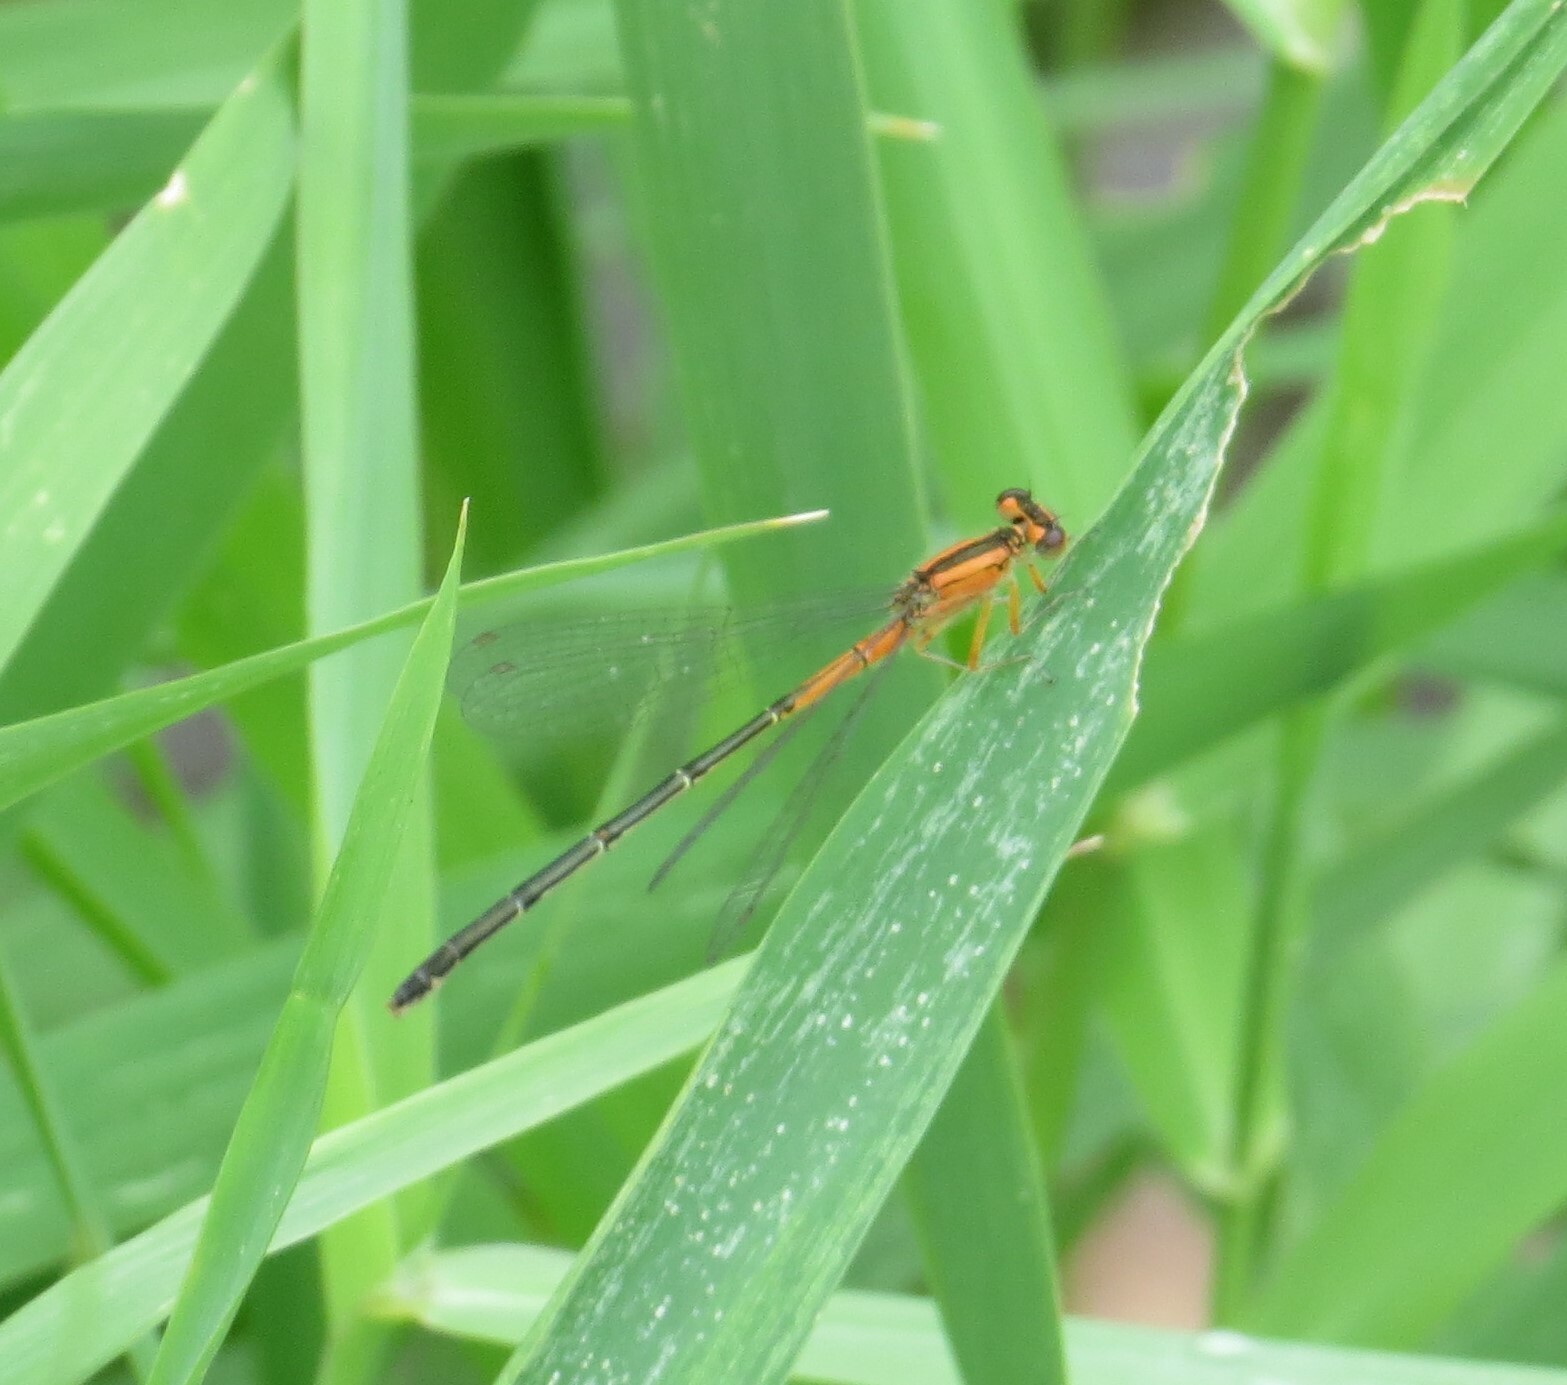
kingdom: Animalia
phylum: Arthropoda
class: Insecta
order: Odonata
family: Coenagrionidae
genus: Ischnura
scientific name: Ischnura verticalis
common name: Eastern forktail
